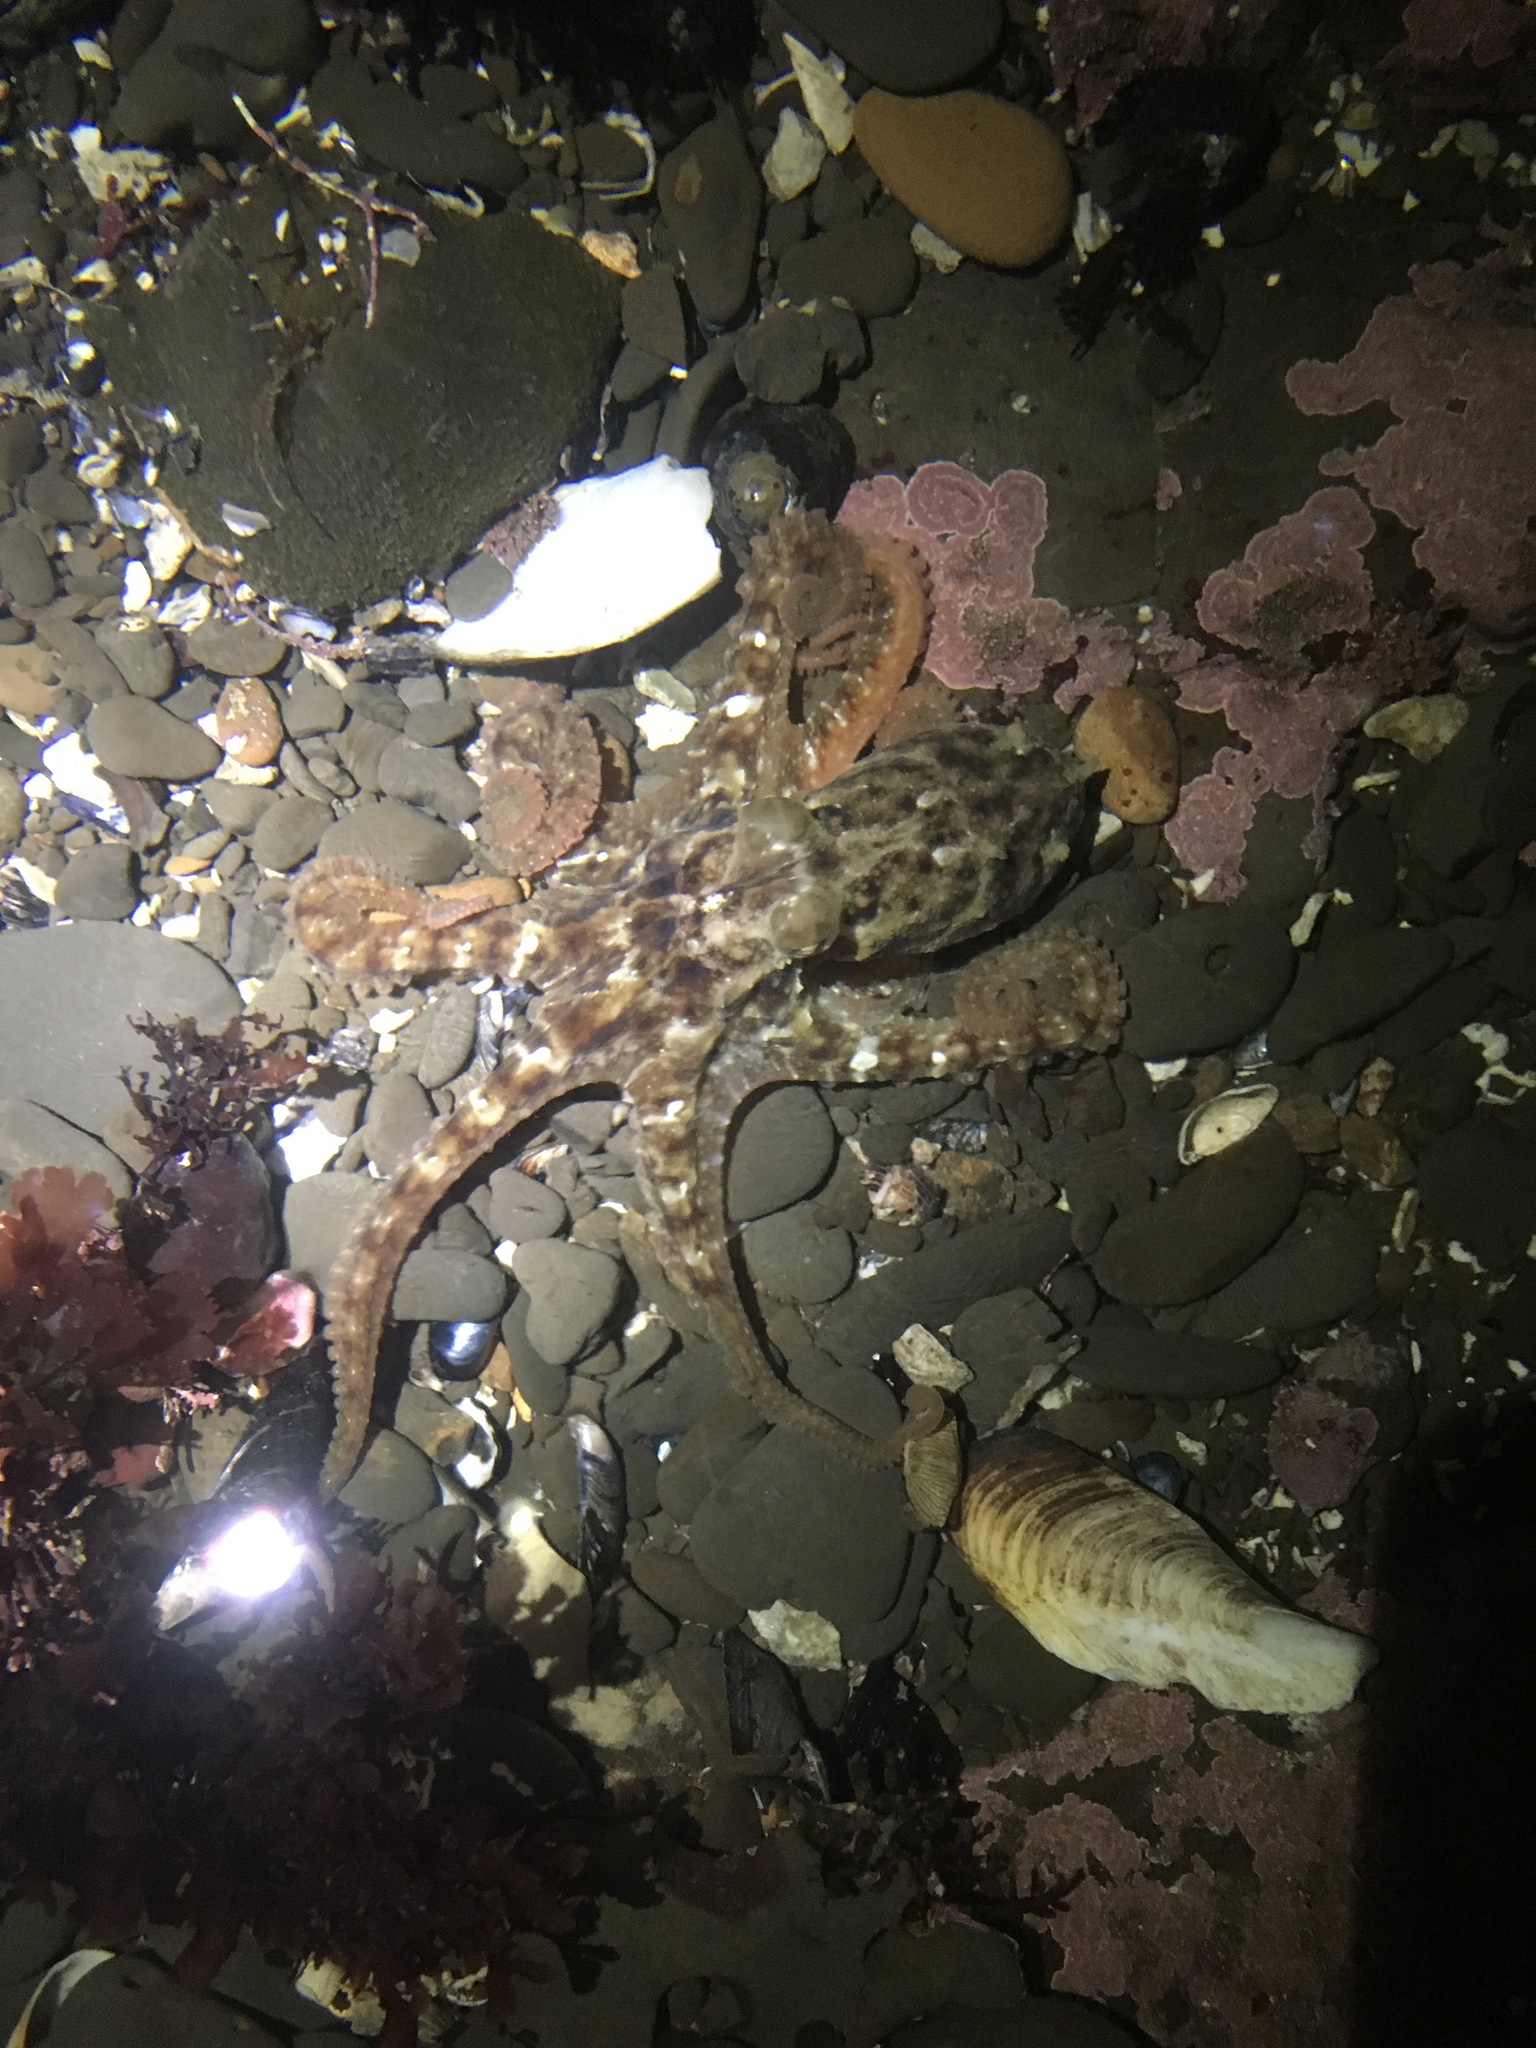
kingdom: Animalia
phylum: Mollusca
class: Cephalopoda
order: Octopoda
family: Octopodidae
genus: Octopus
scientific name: Octopus rubescens
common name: East pacific red octopus
